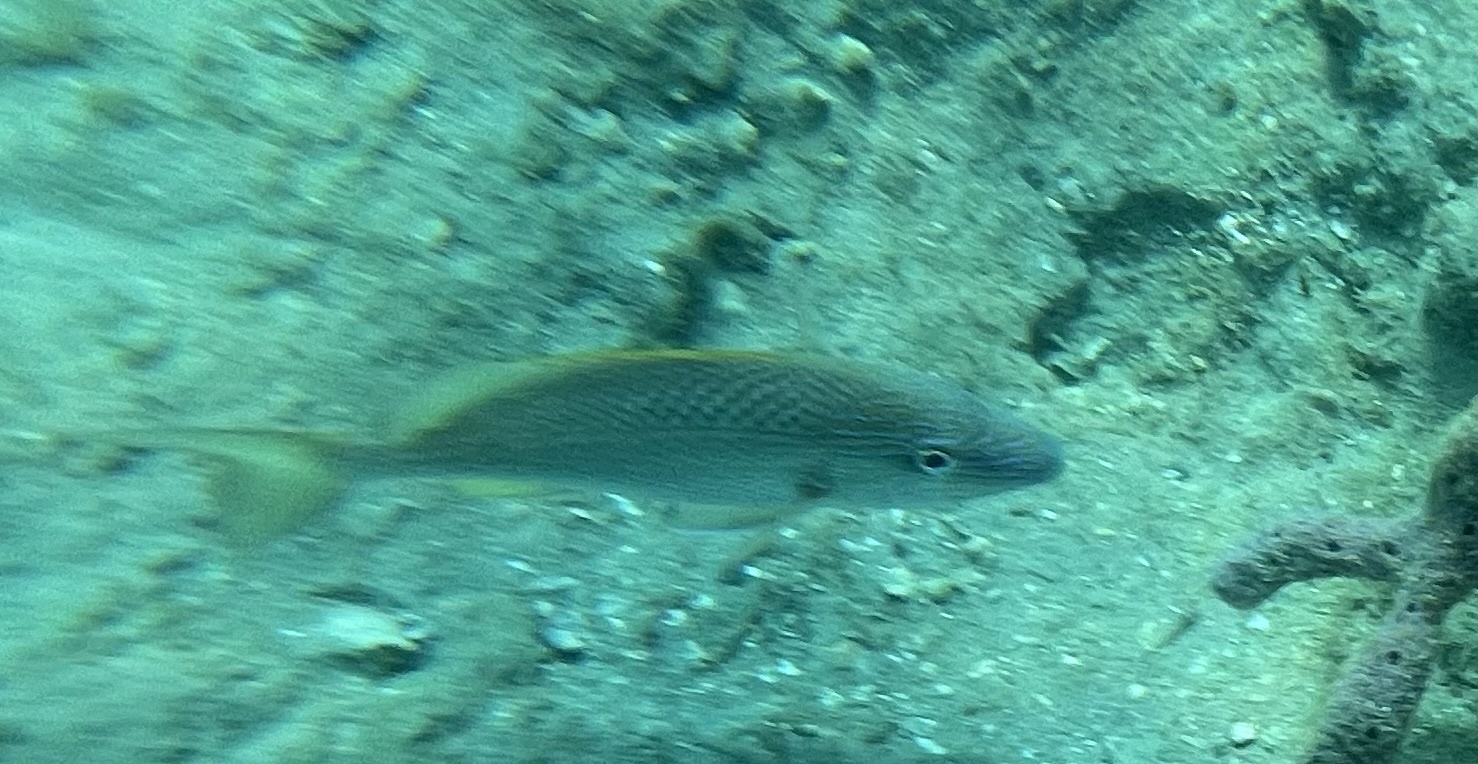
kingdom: Animalia
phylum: Chordata
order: Perciformes
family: Haemulidae
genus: Haemulon
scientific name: Haemulon plumierii
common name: White grunt
